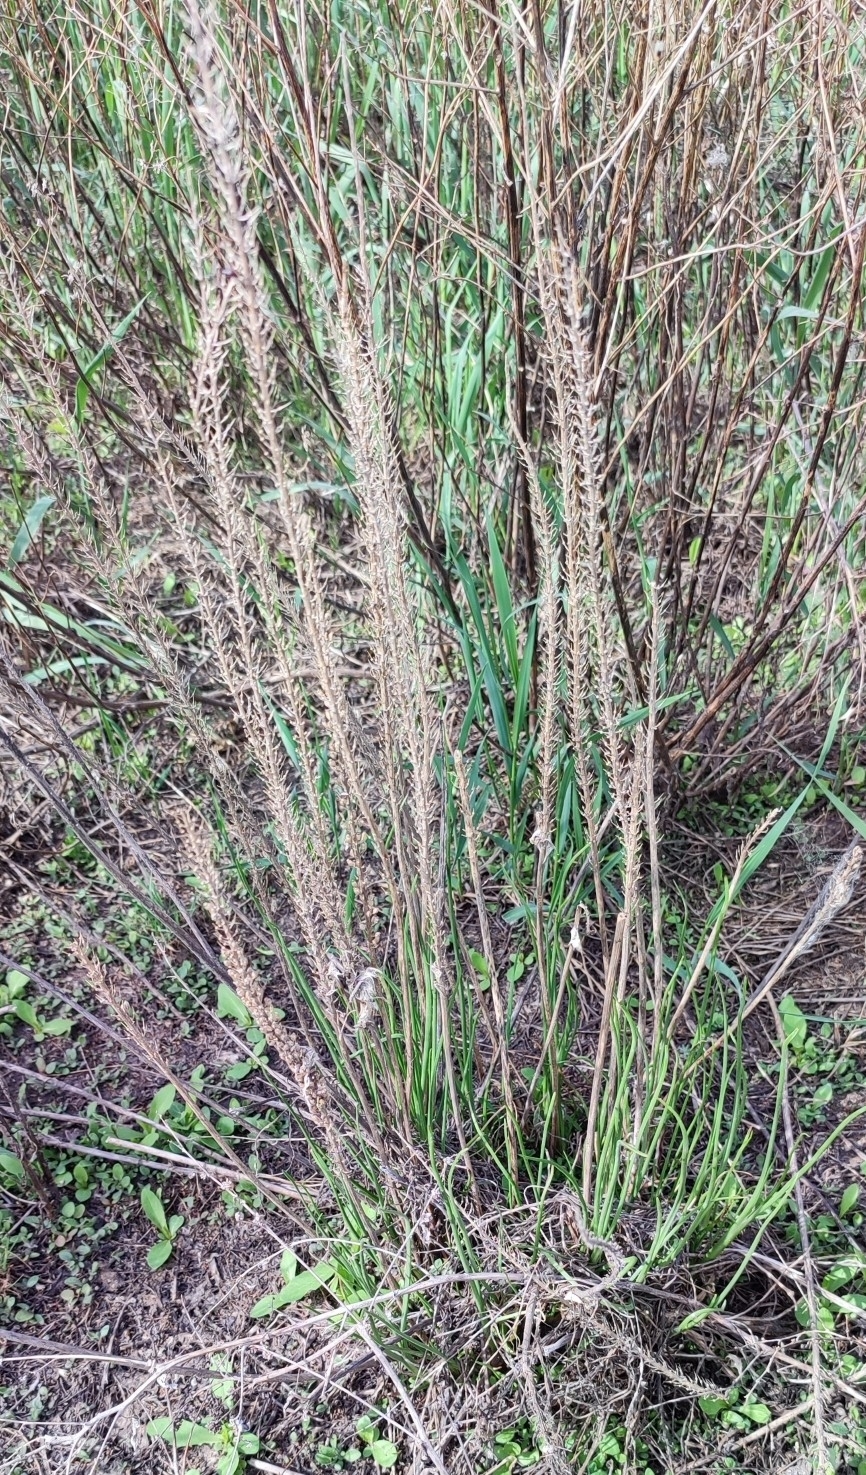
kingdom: Plantae
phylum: Tracheophyta
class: Liliopsida
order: Alismatales
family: Juncaginaceae
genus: Triglochin
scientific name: Triglochin maritima
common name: Sea arrowgrass
